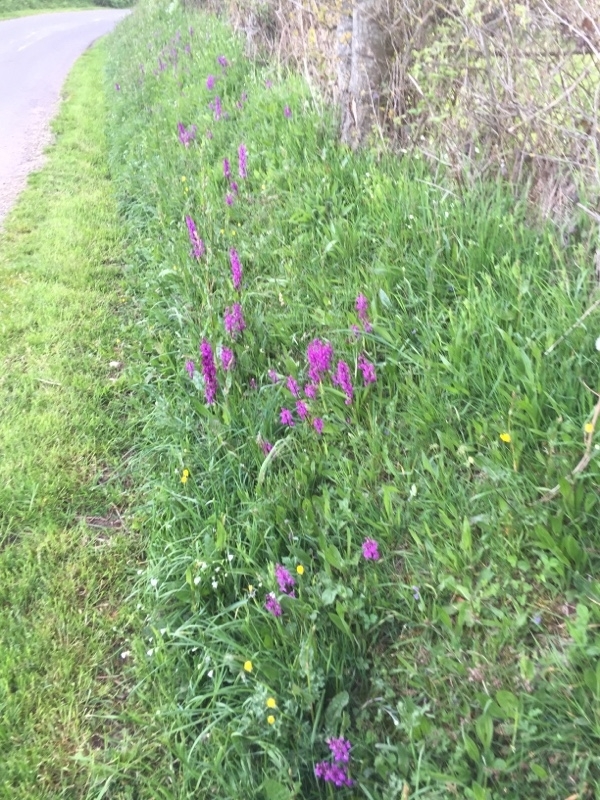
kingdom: Plantae
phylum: Tracheophyta
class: Liliopsida
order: Asparagales
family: Orchidaceae
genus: Orchis
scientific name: Orchis mascula
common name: Early-purple orchid
